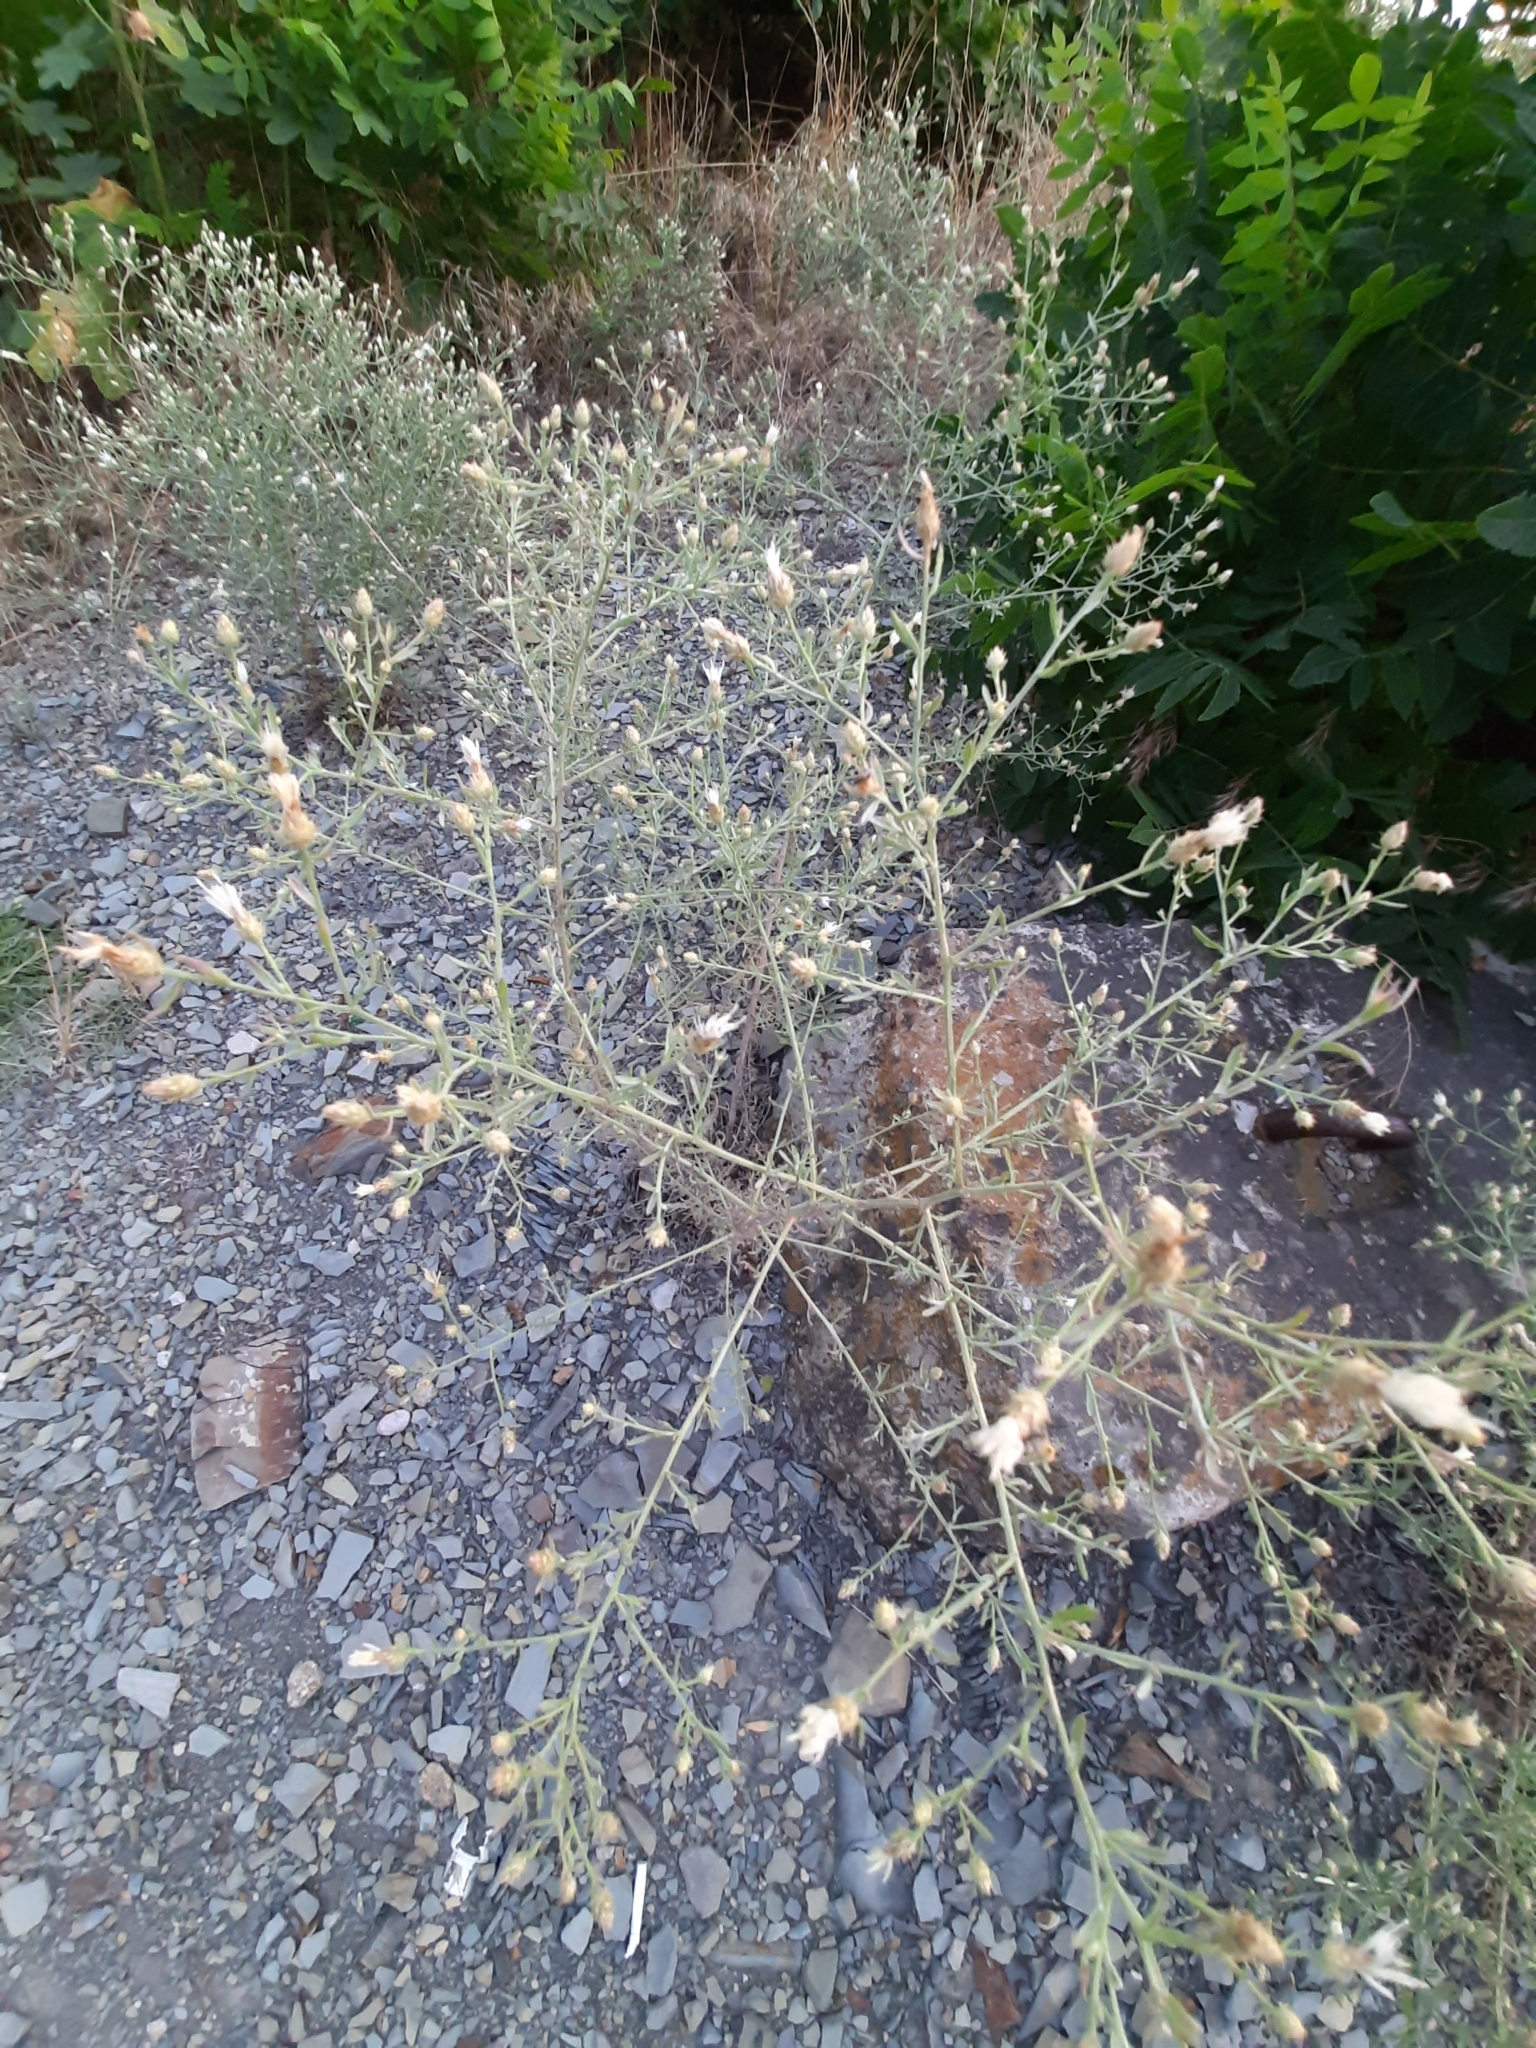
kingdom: Plantae
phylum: Tracheophyta
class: Magnoliopsida
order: Asterales
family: Asteraceae
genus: Centaurea
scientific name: Centaurea diffusa
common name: Diffuse knapweed
